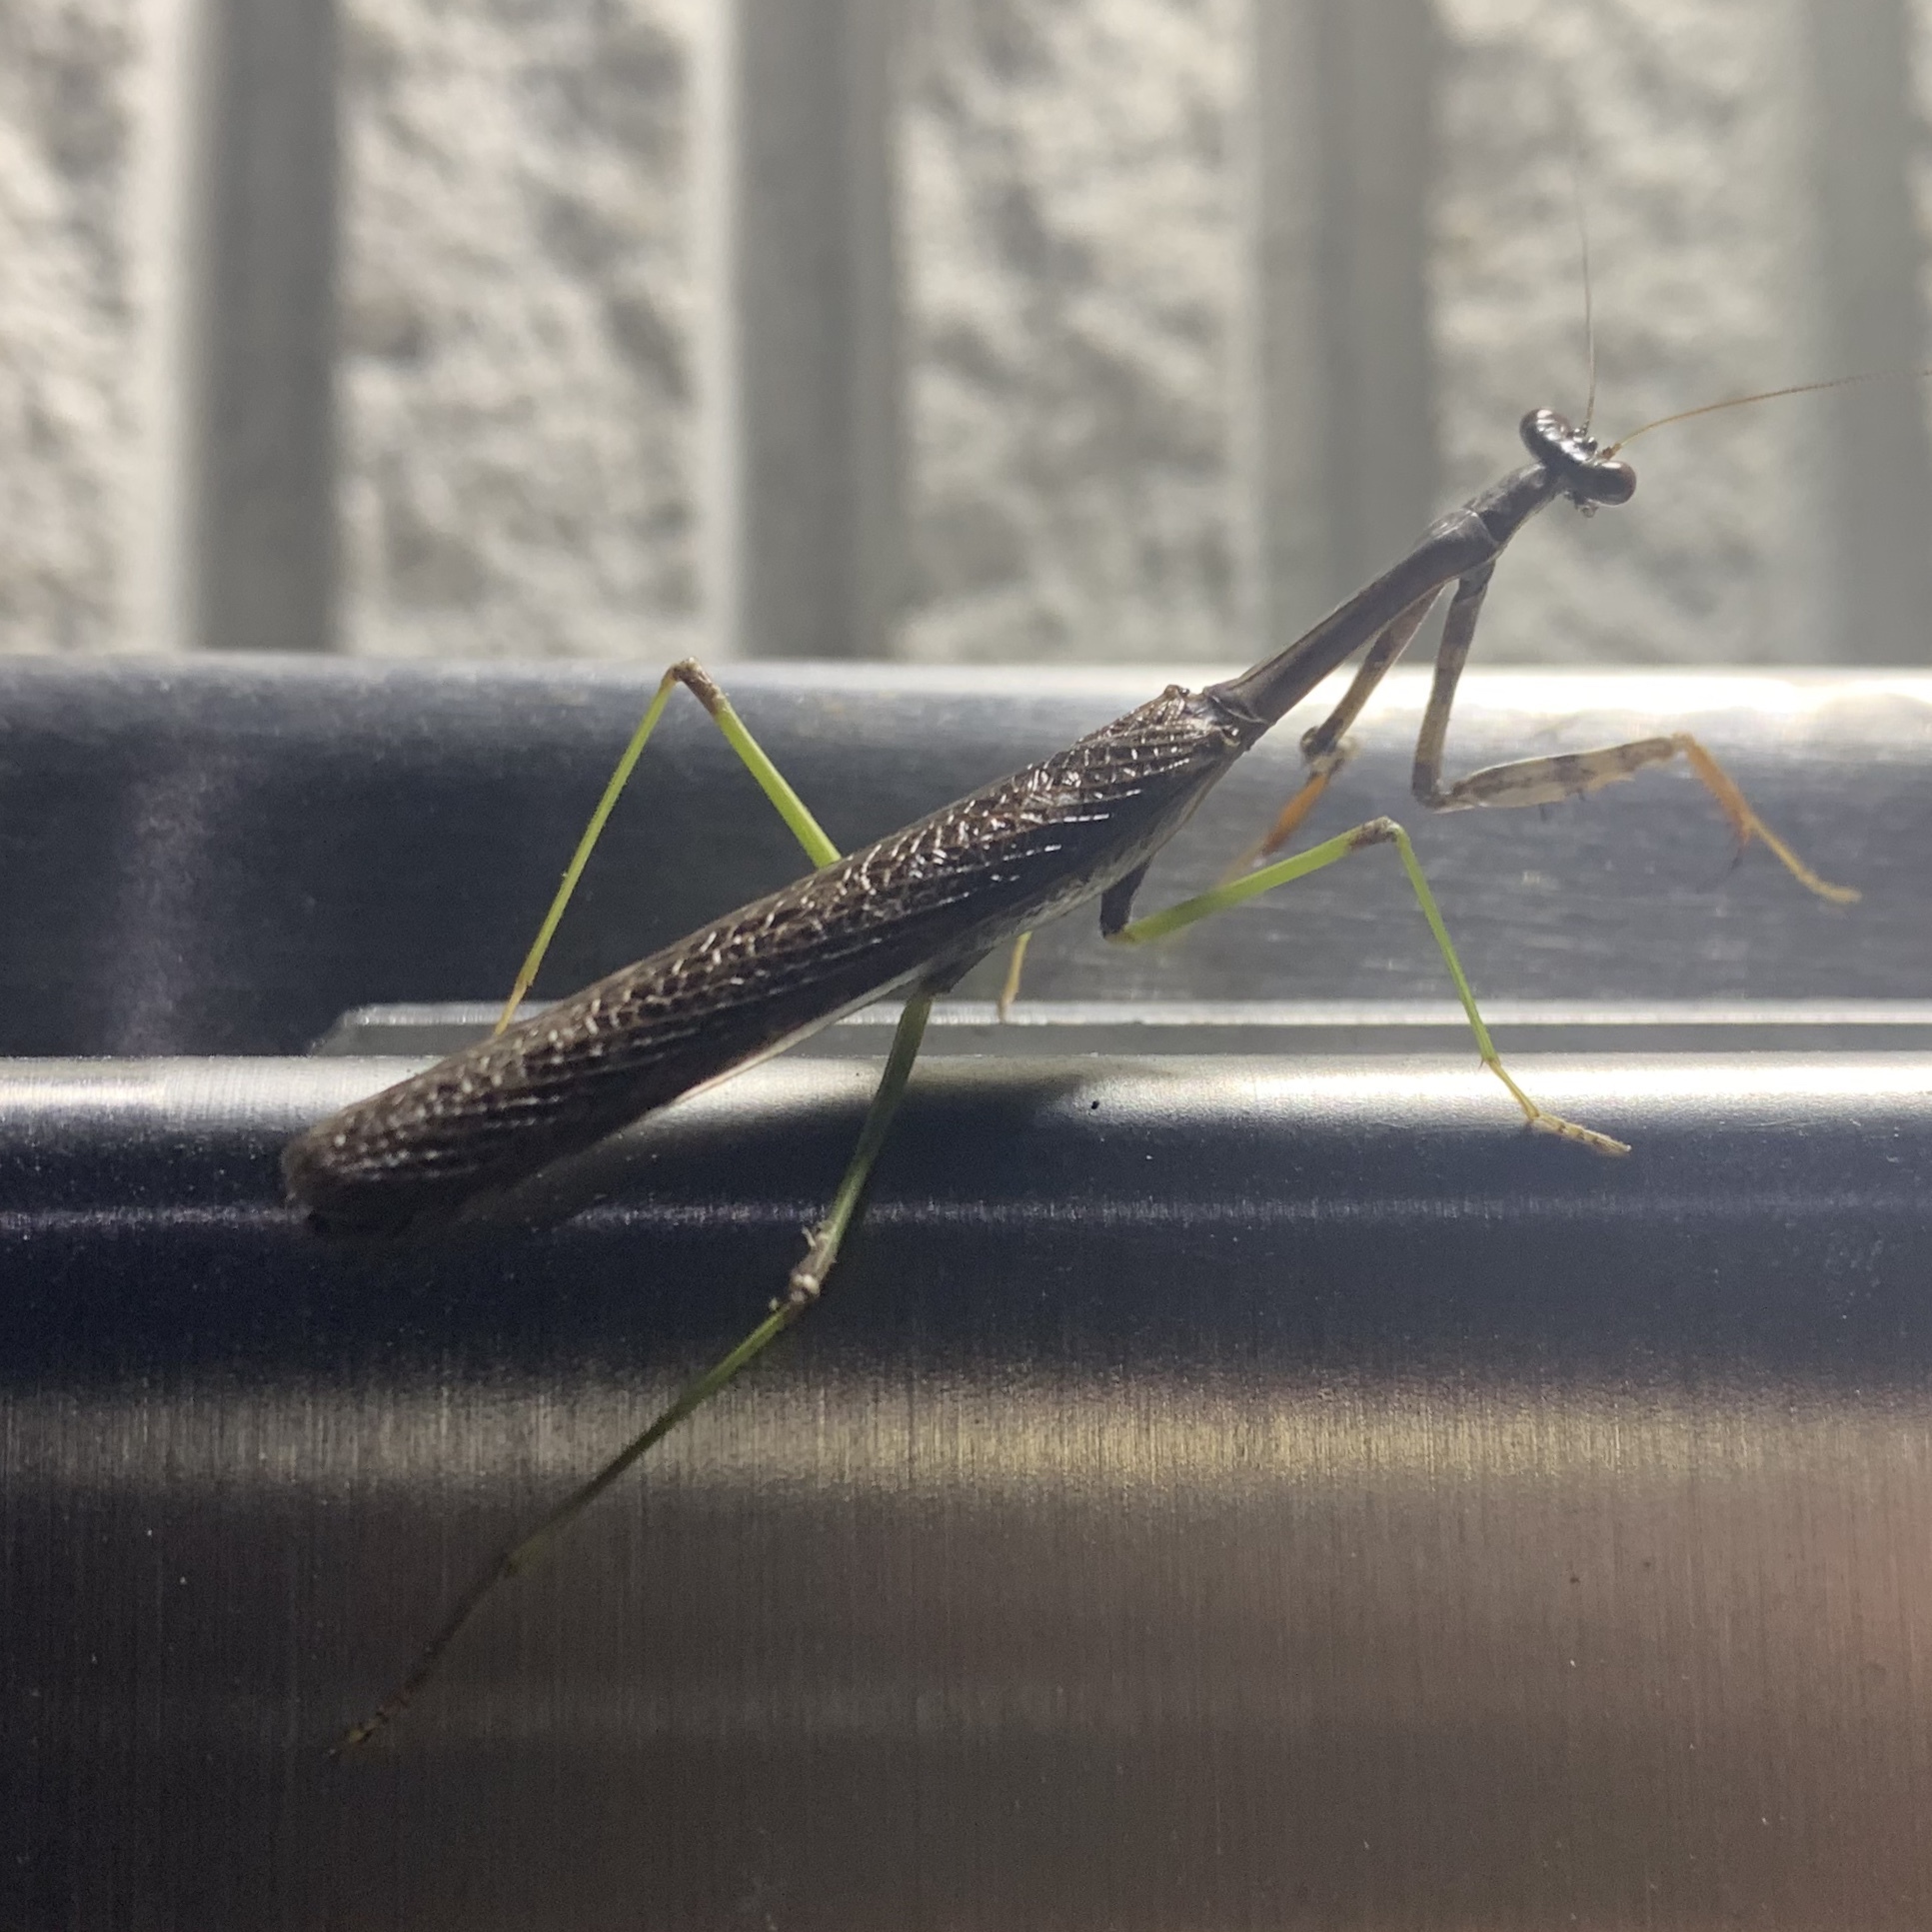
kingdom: Animalia
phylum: Arthropoda
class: Insecta
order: Mantodea
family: Mantidae
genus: Stagmomantis
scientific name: Stagmomantis carolina
